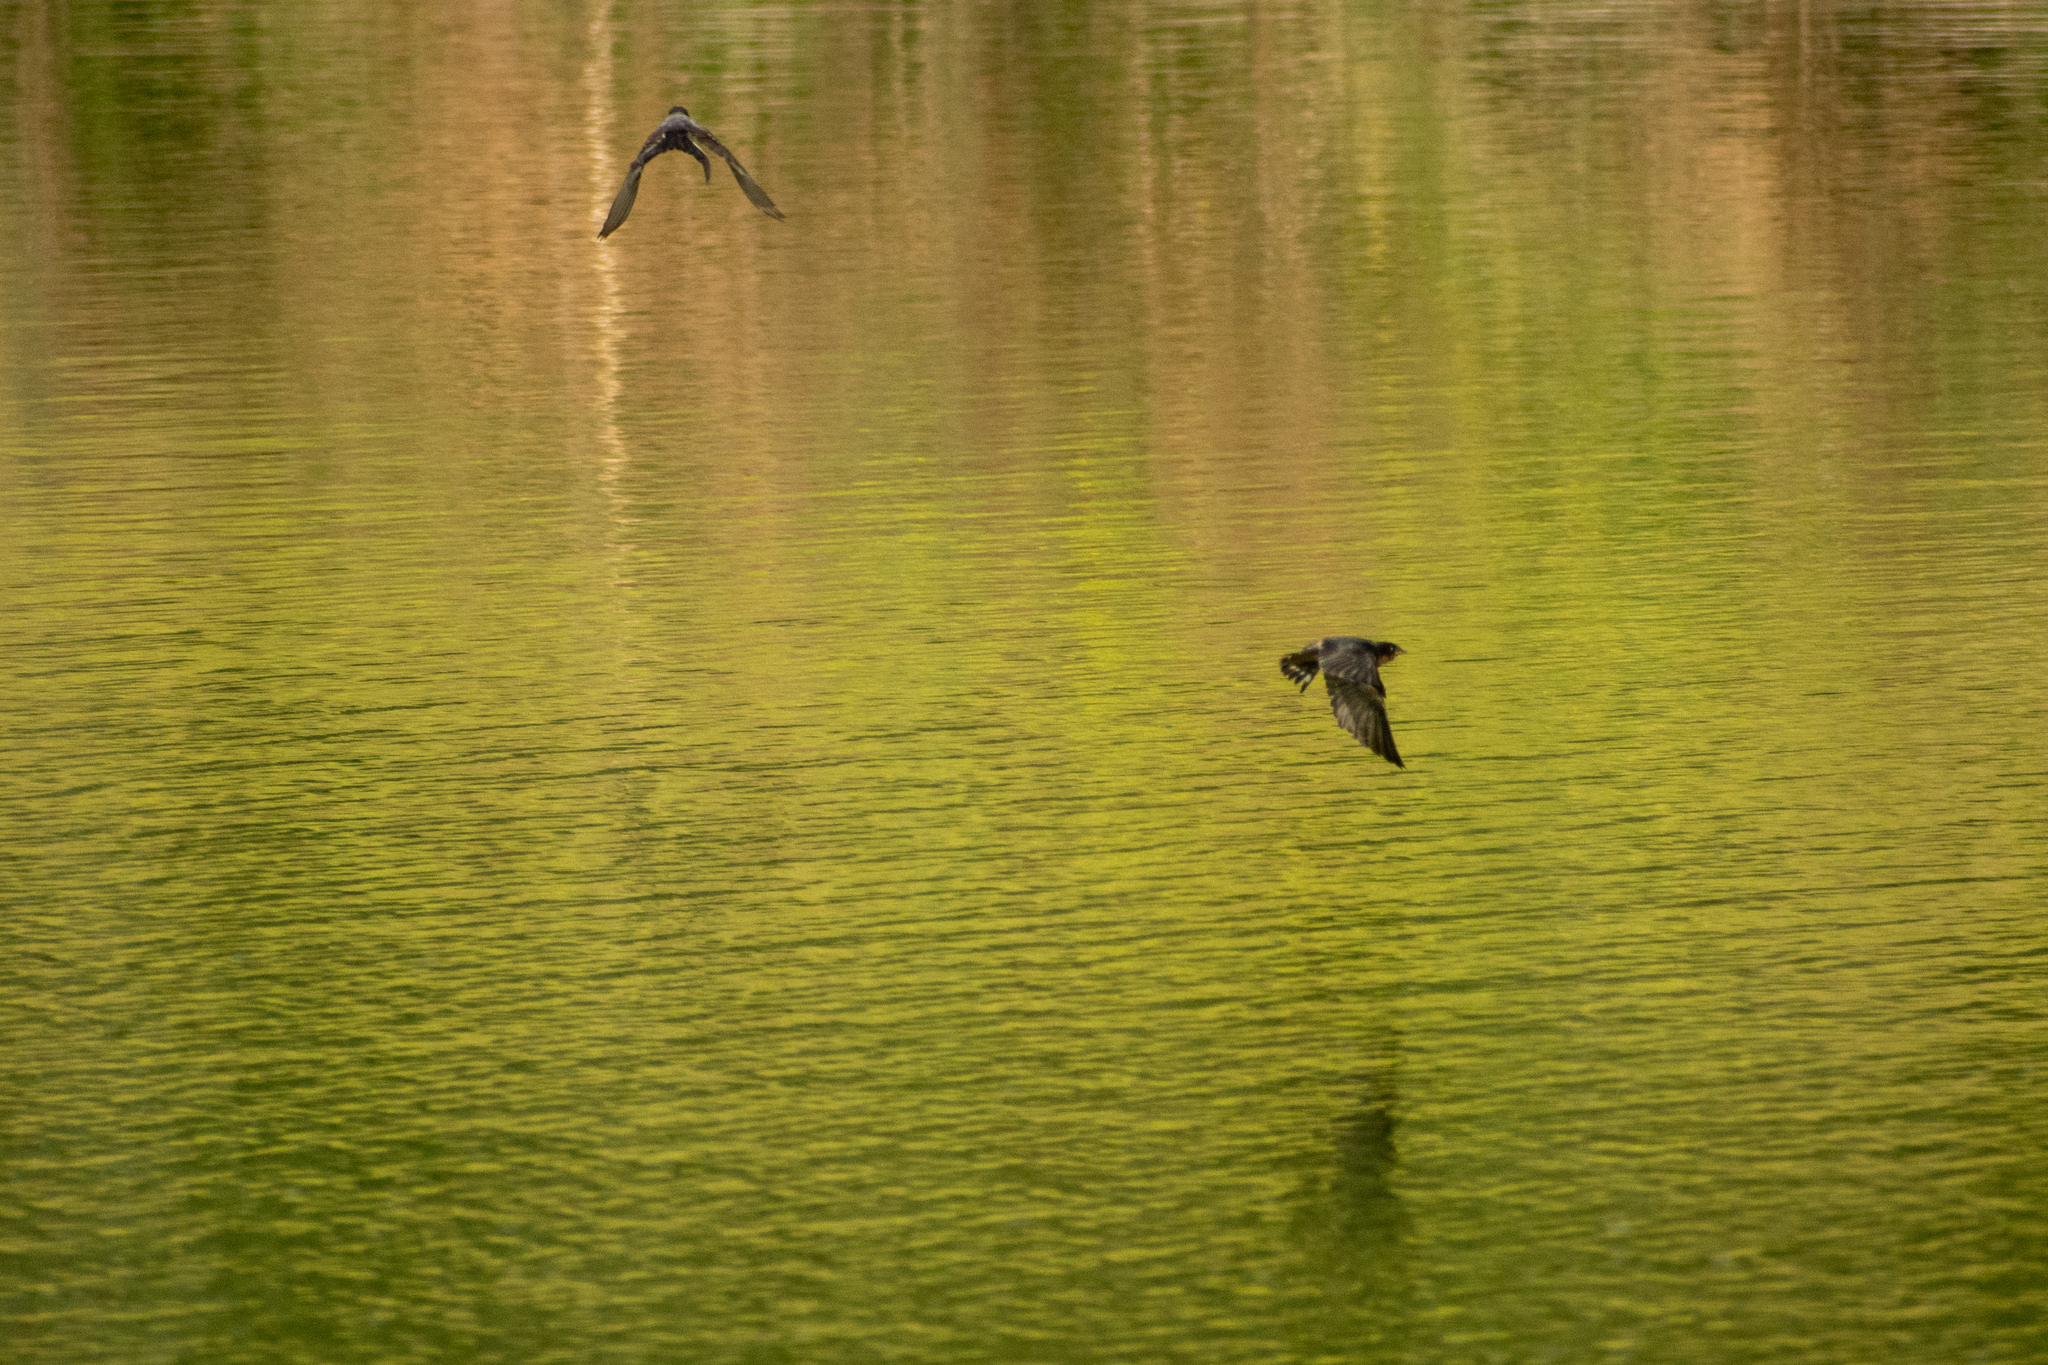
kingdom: Animalia
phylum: Chordata
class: Aves
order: Passeriformes
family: Hirundinidae
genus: Hirundo
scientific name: Hirundo rustica
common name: Barn swallow
